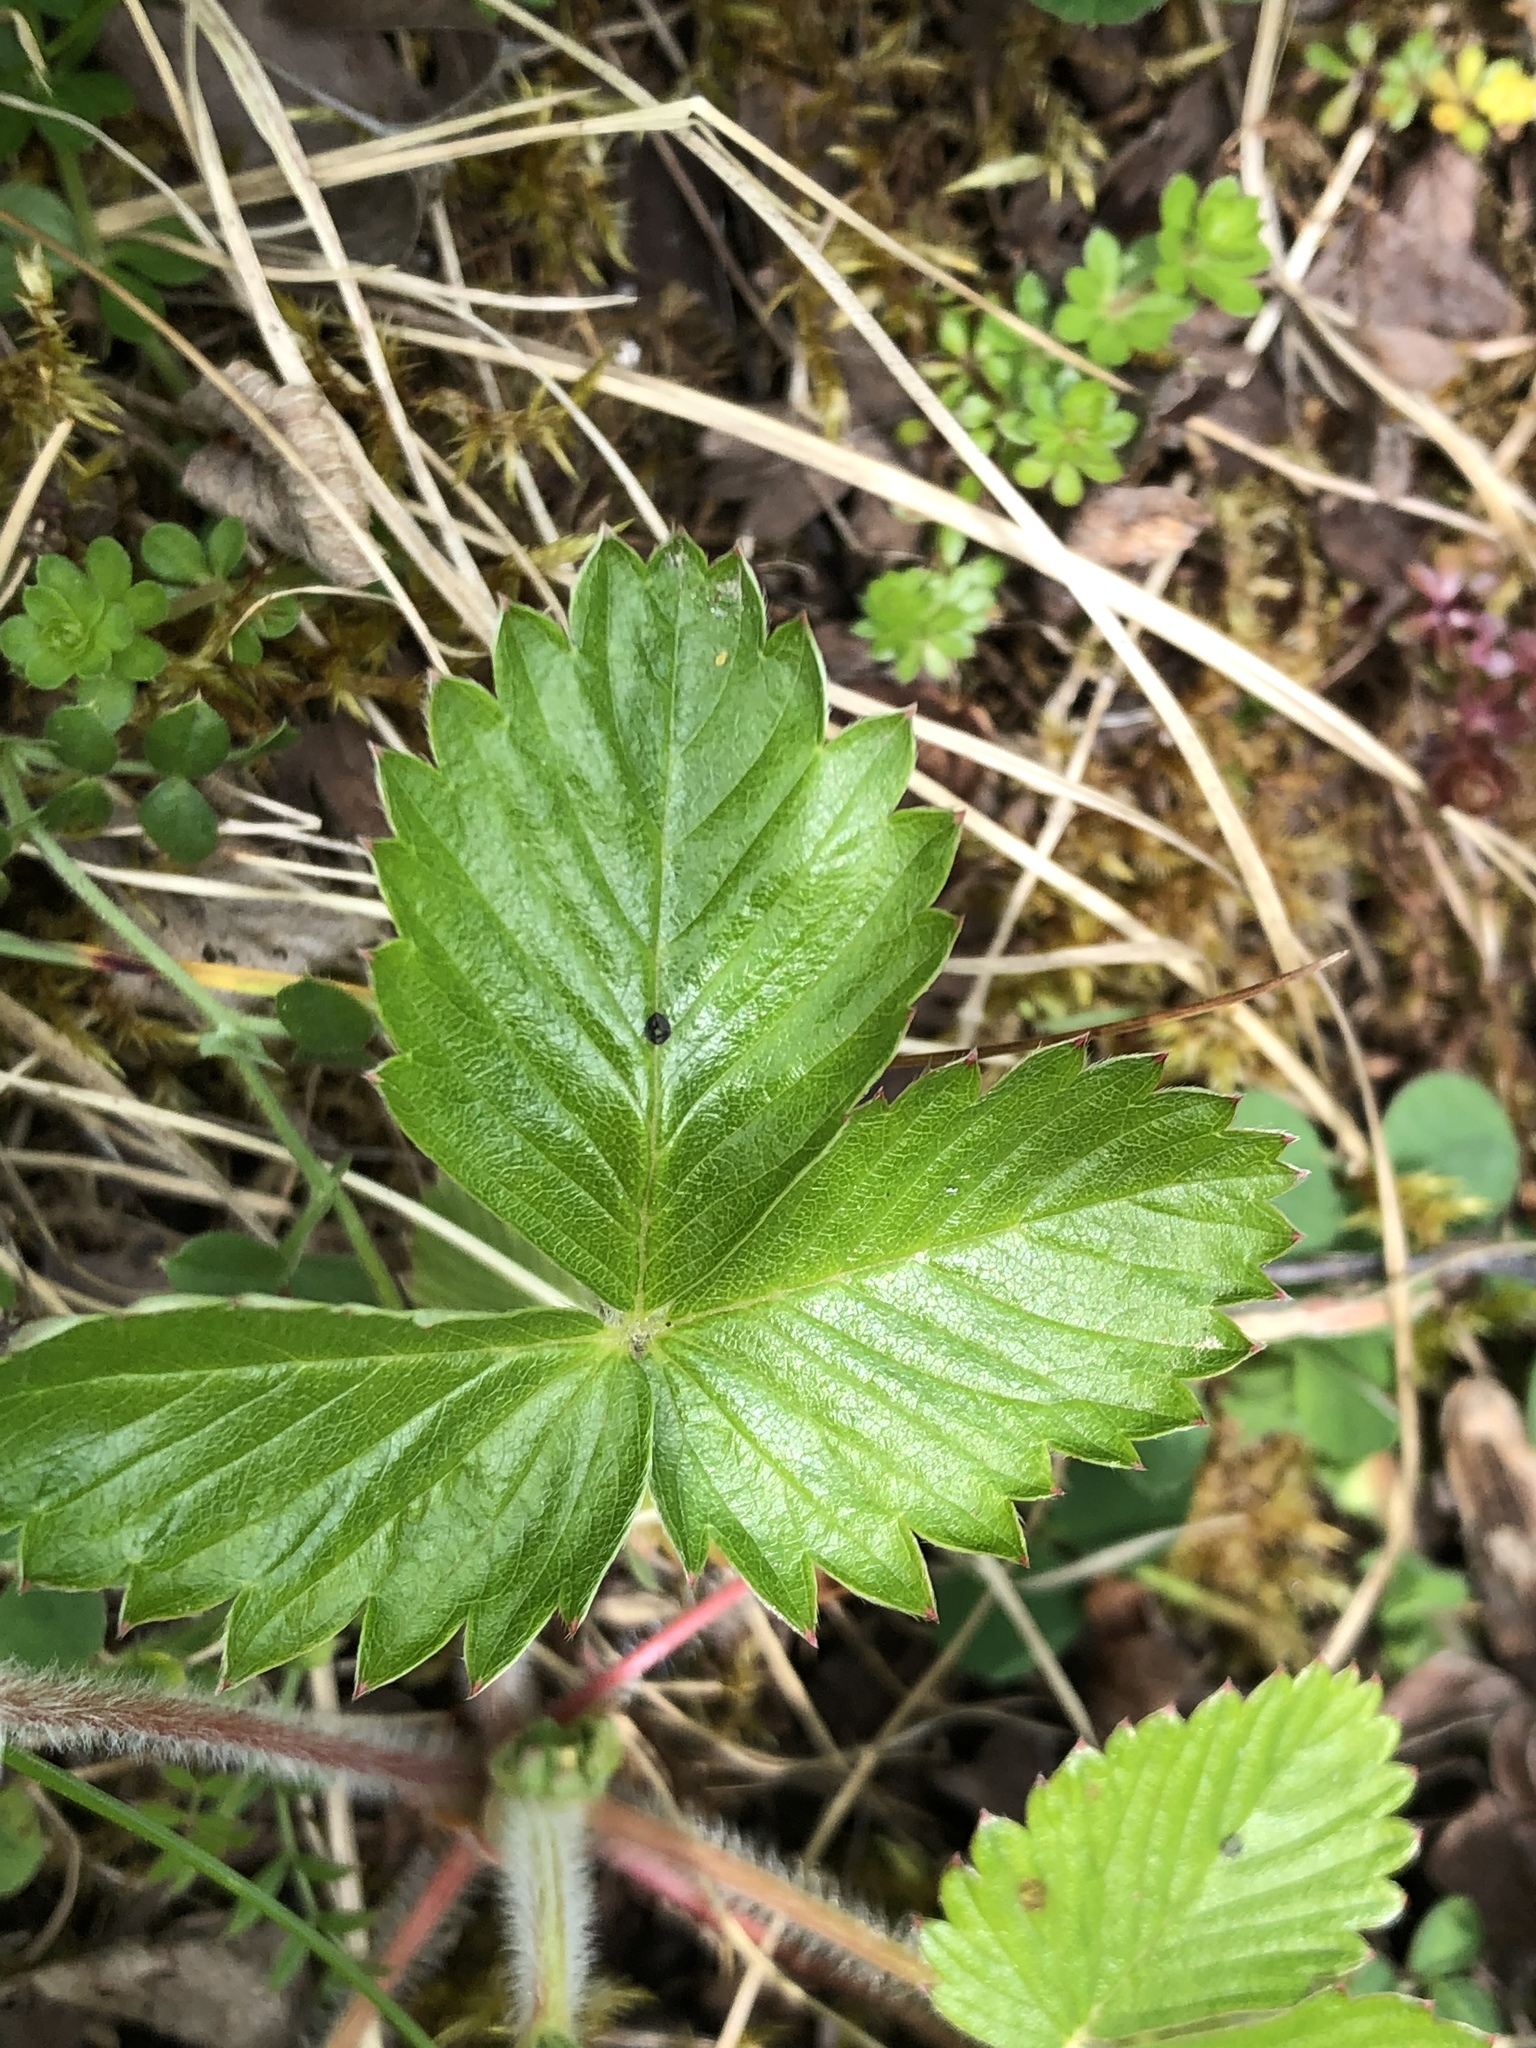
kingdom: Plantae
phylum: Tracheophyta
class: Magnoliopsida
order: Rosales
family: Rosaceae
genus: Fragaria
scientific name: Fragaria vesca
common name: Wild strawberry
